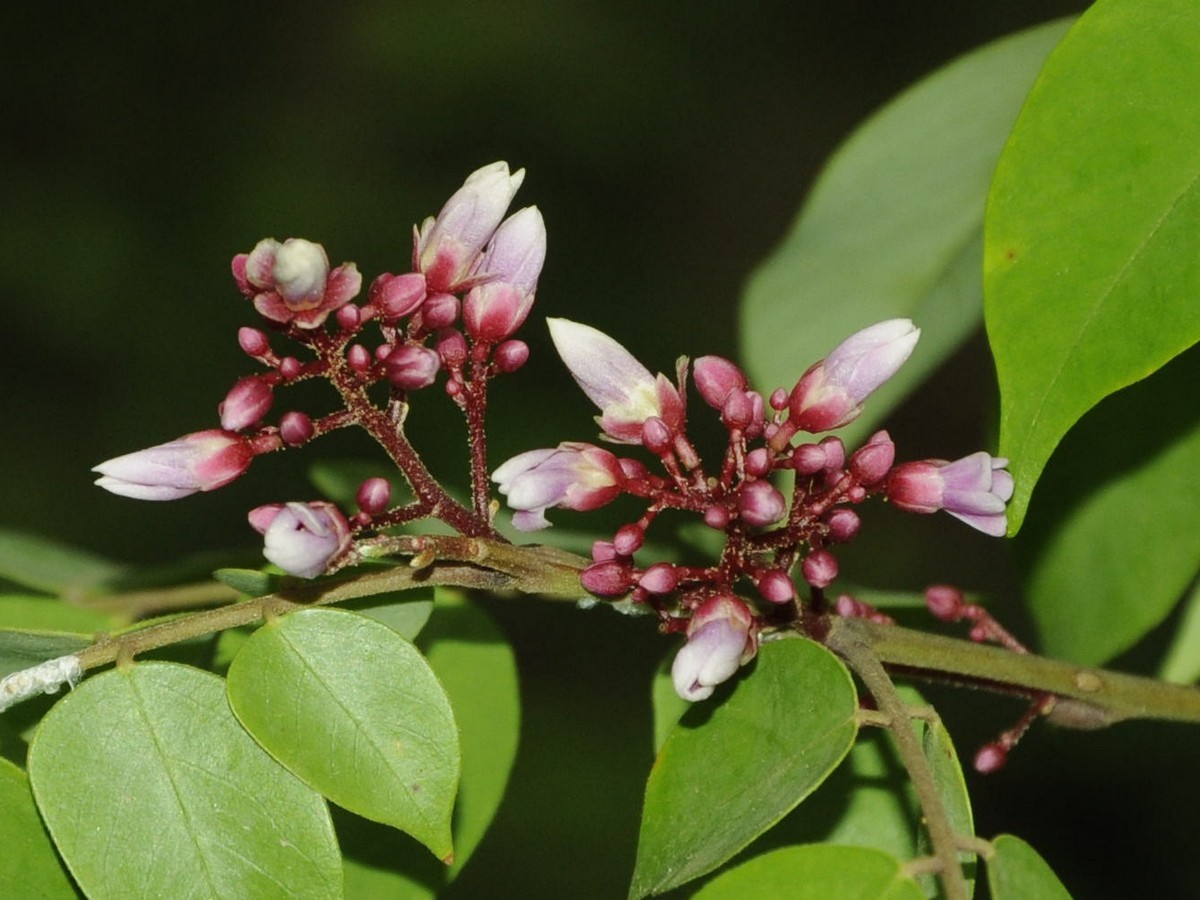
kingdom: Plantae
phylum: Tracheophyta
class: Magnoliopsida
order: Oxalidales
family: Oxalidaceae
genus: Averrhoa
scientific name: Averrhoa carambola
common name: Blimbing
